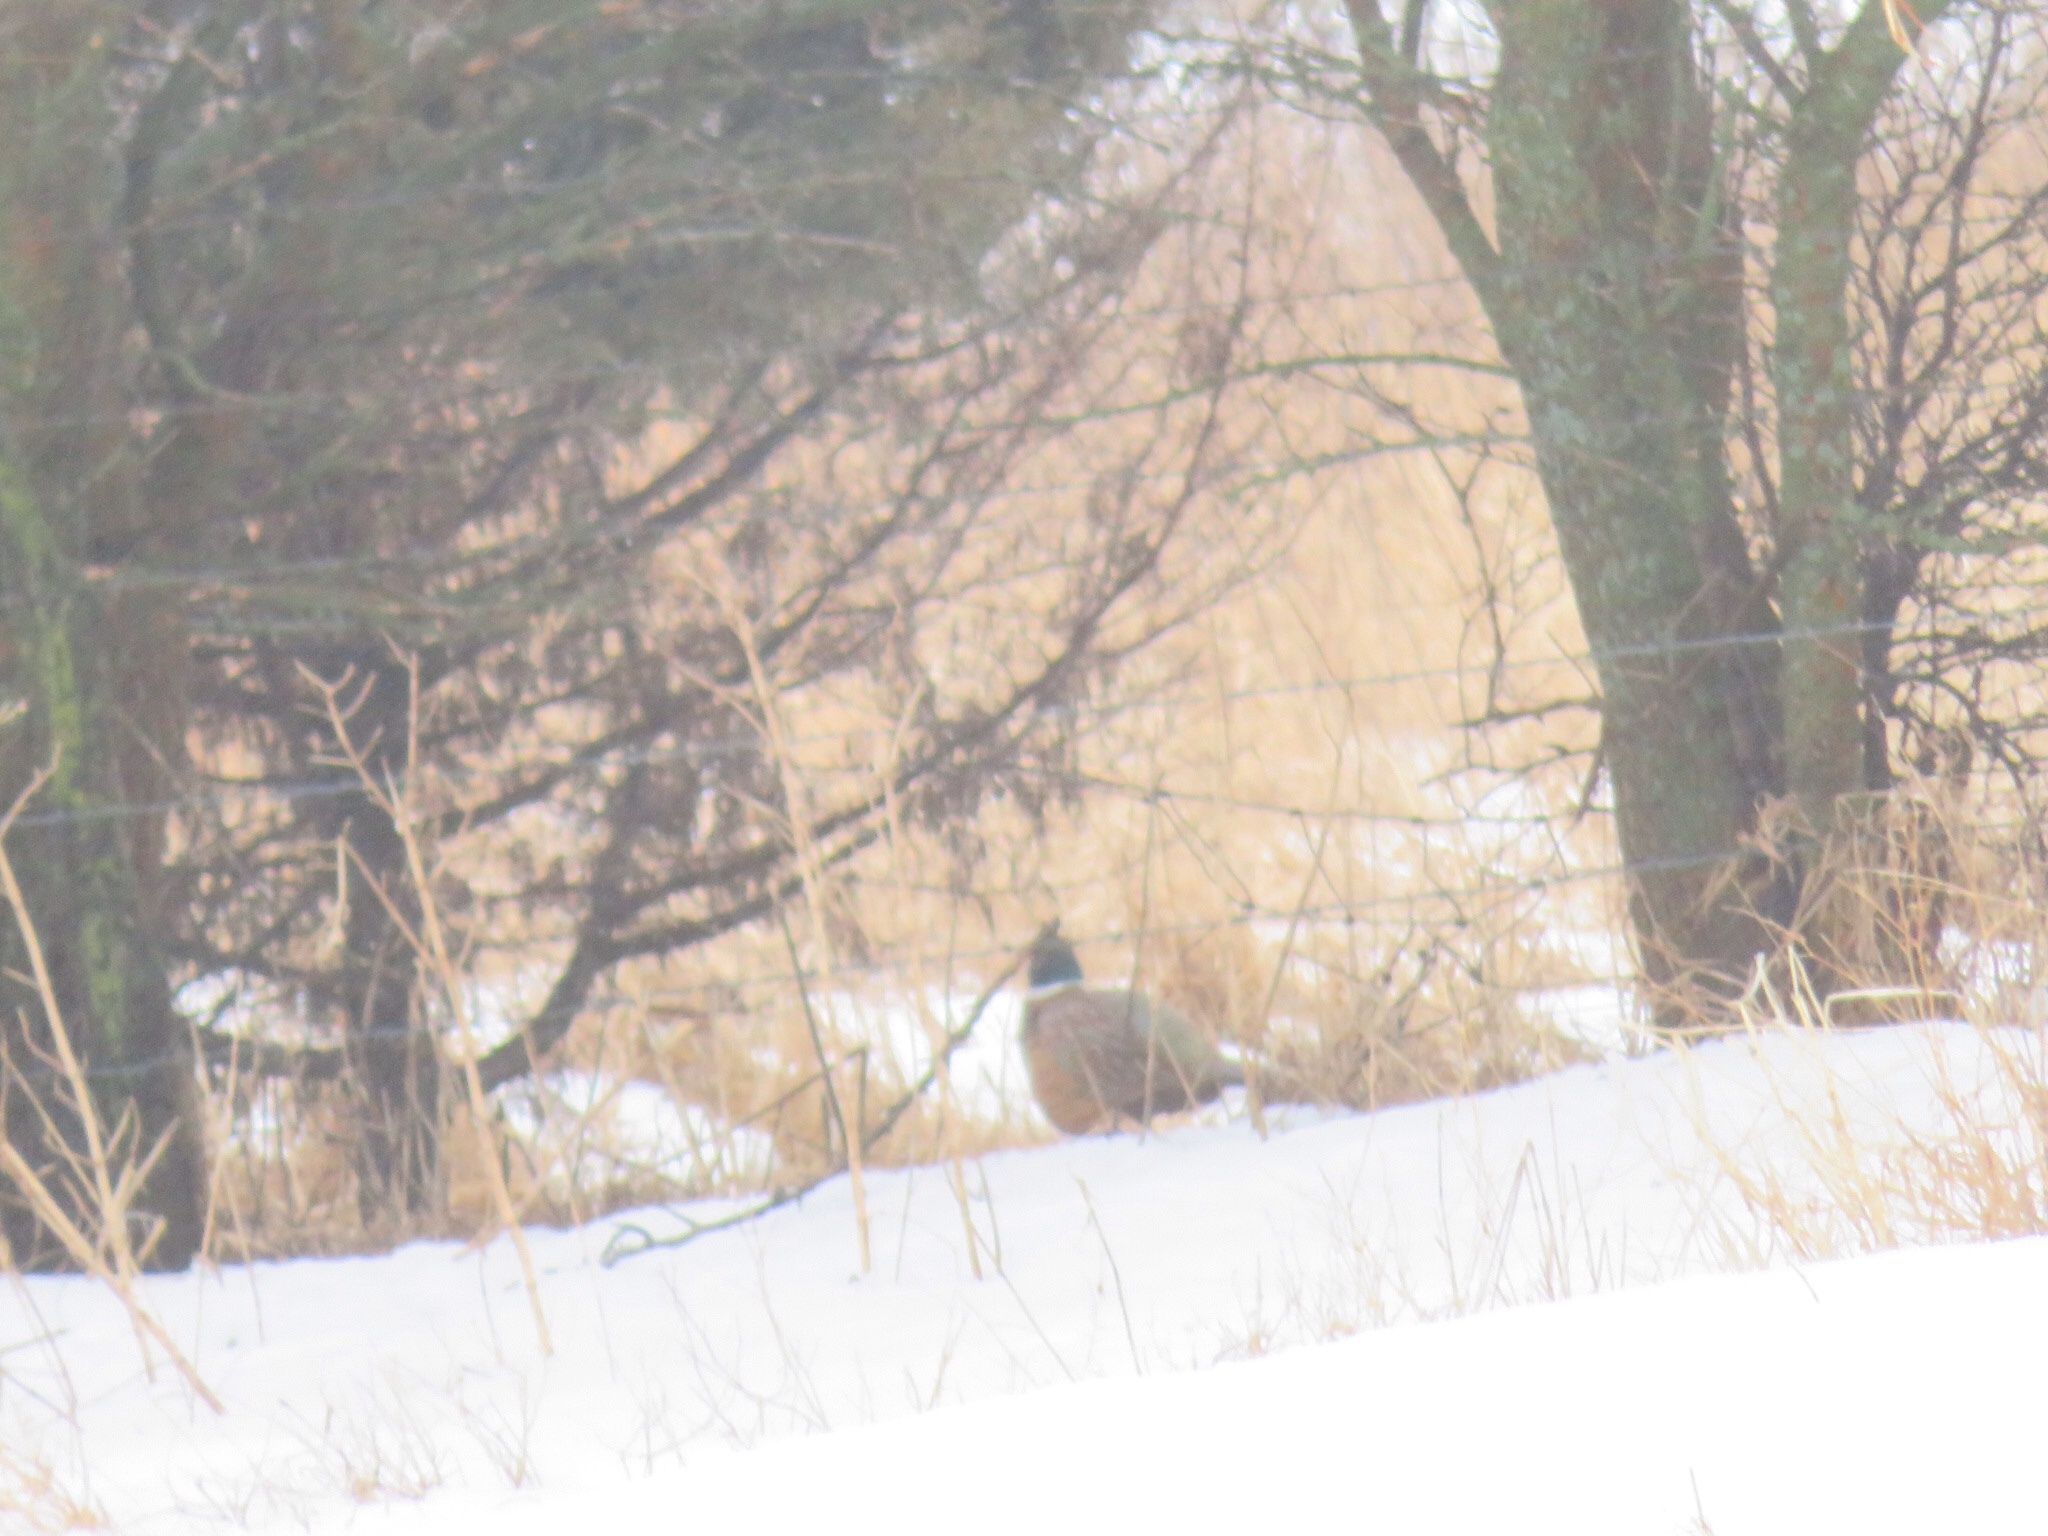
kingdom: Animalia
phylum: Chordata
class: Aves
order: Galliformes
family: Phasianidae
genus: Phasianus
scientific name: Phasianus colchicus
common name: Common pheasant
